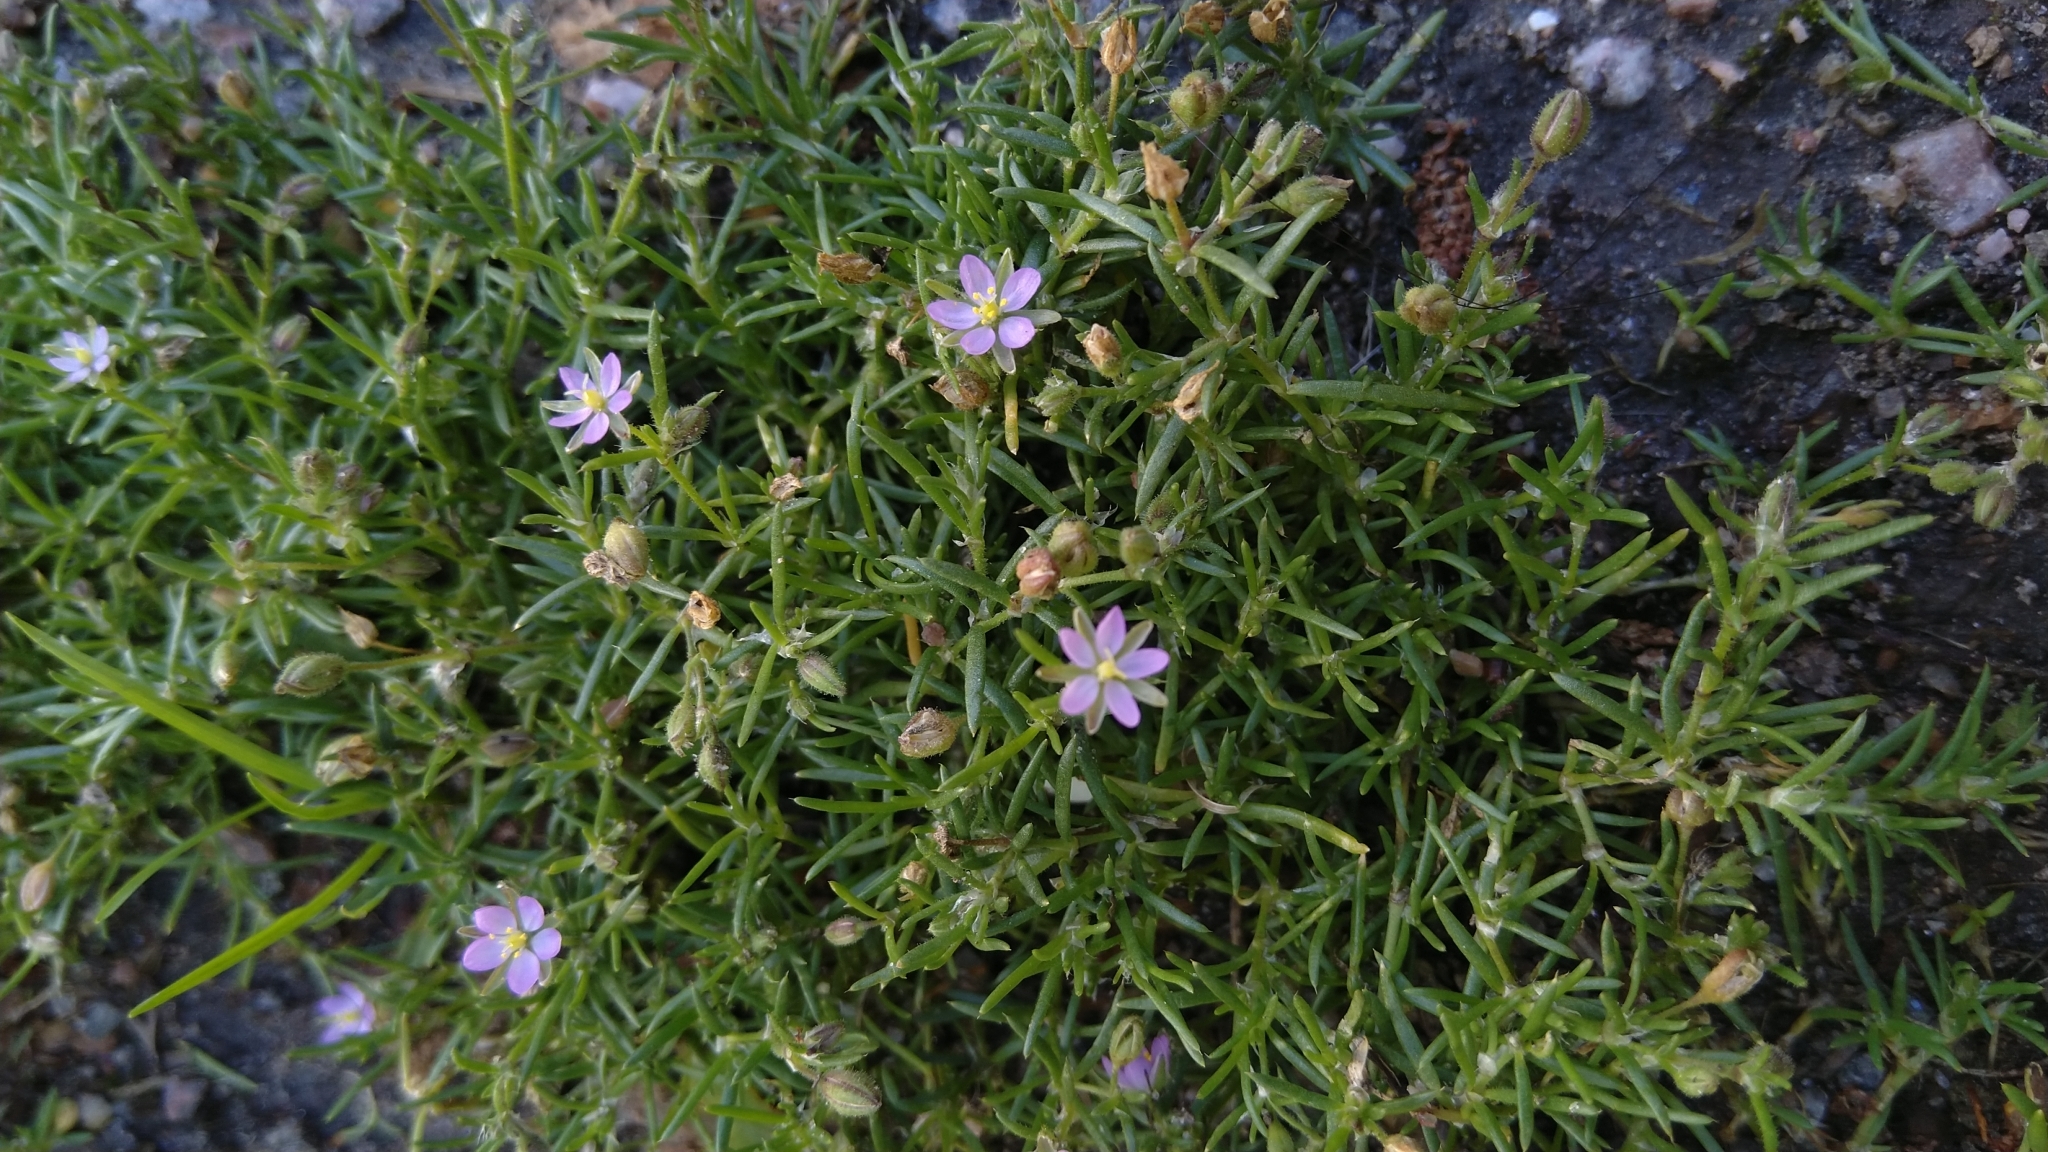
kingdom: Plantae
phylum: Tracheophyta
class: Magnoliopsida
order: Caryophyllales
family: Caryophyllaceae
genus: Spergularia
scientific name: Spergularia rubra
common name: Red sand-spurrey
